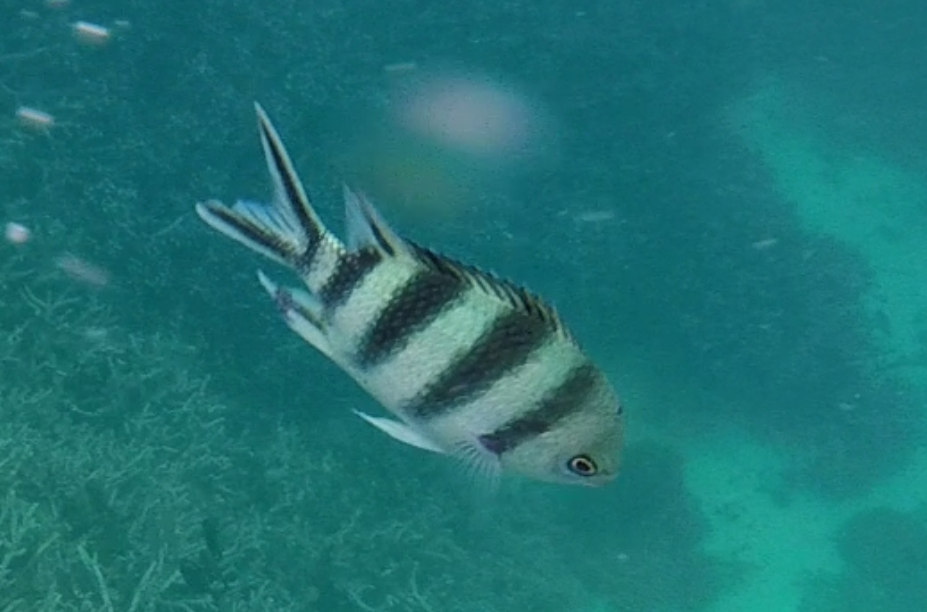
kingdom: Animalia
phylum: Chordata
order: Perciformes
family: Pomacentridae
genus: Abudefduf
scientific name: Abudefduf sexfasciatus
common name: Scissortail sergeant
